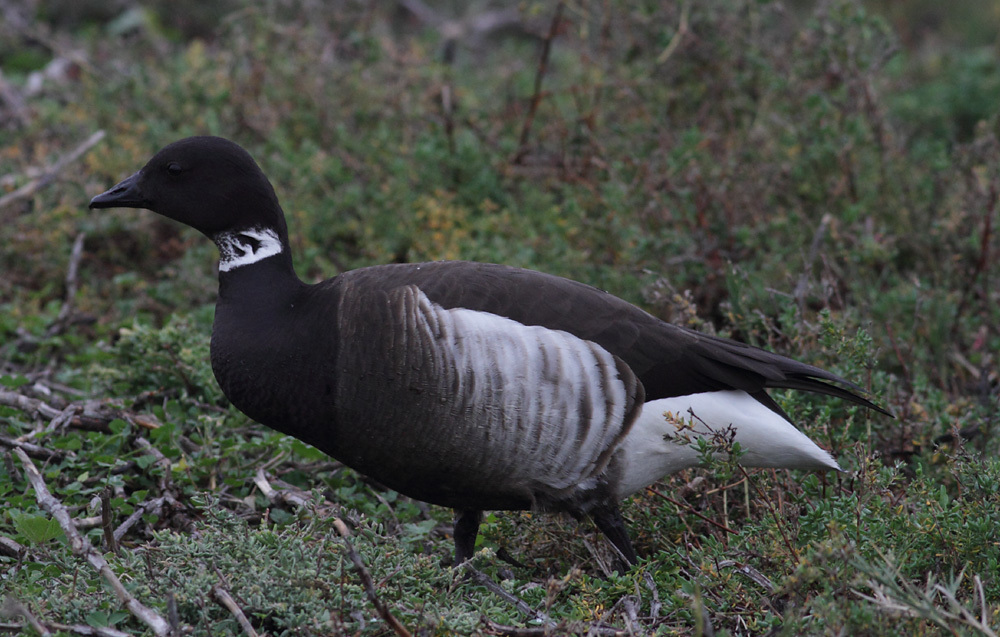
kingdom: Animalia
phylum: Chordata
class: Aves
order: Anseriformes
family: Anatidae
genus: Branta
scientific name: Branta bernicla
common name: Brant goose
